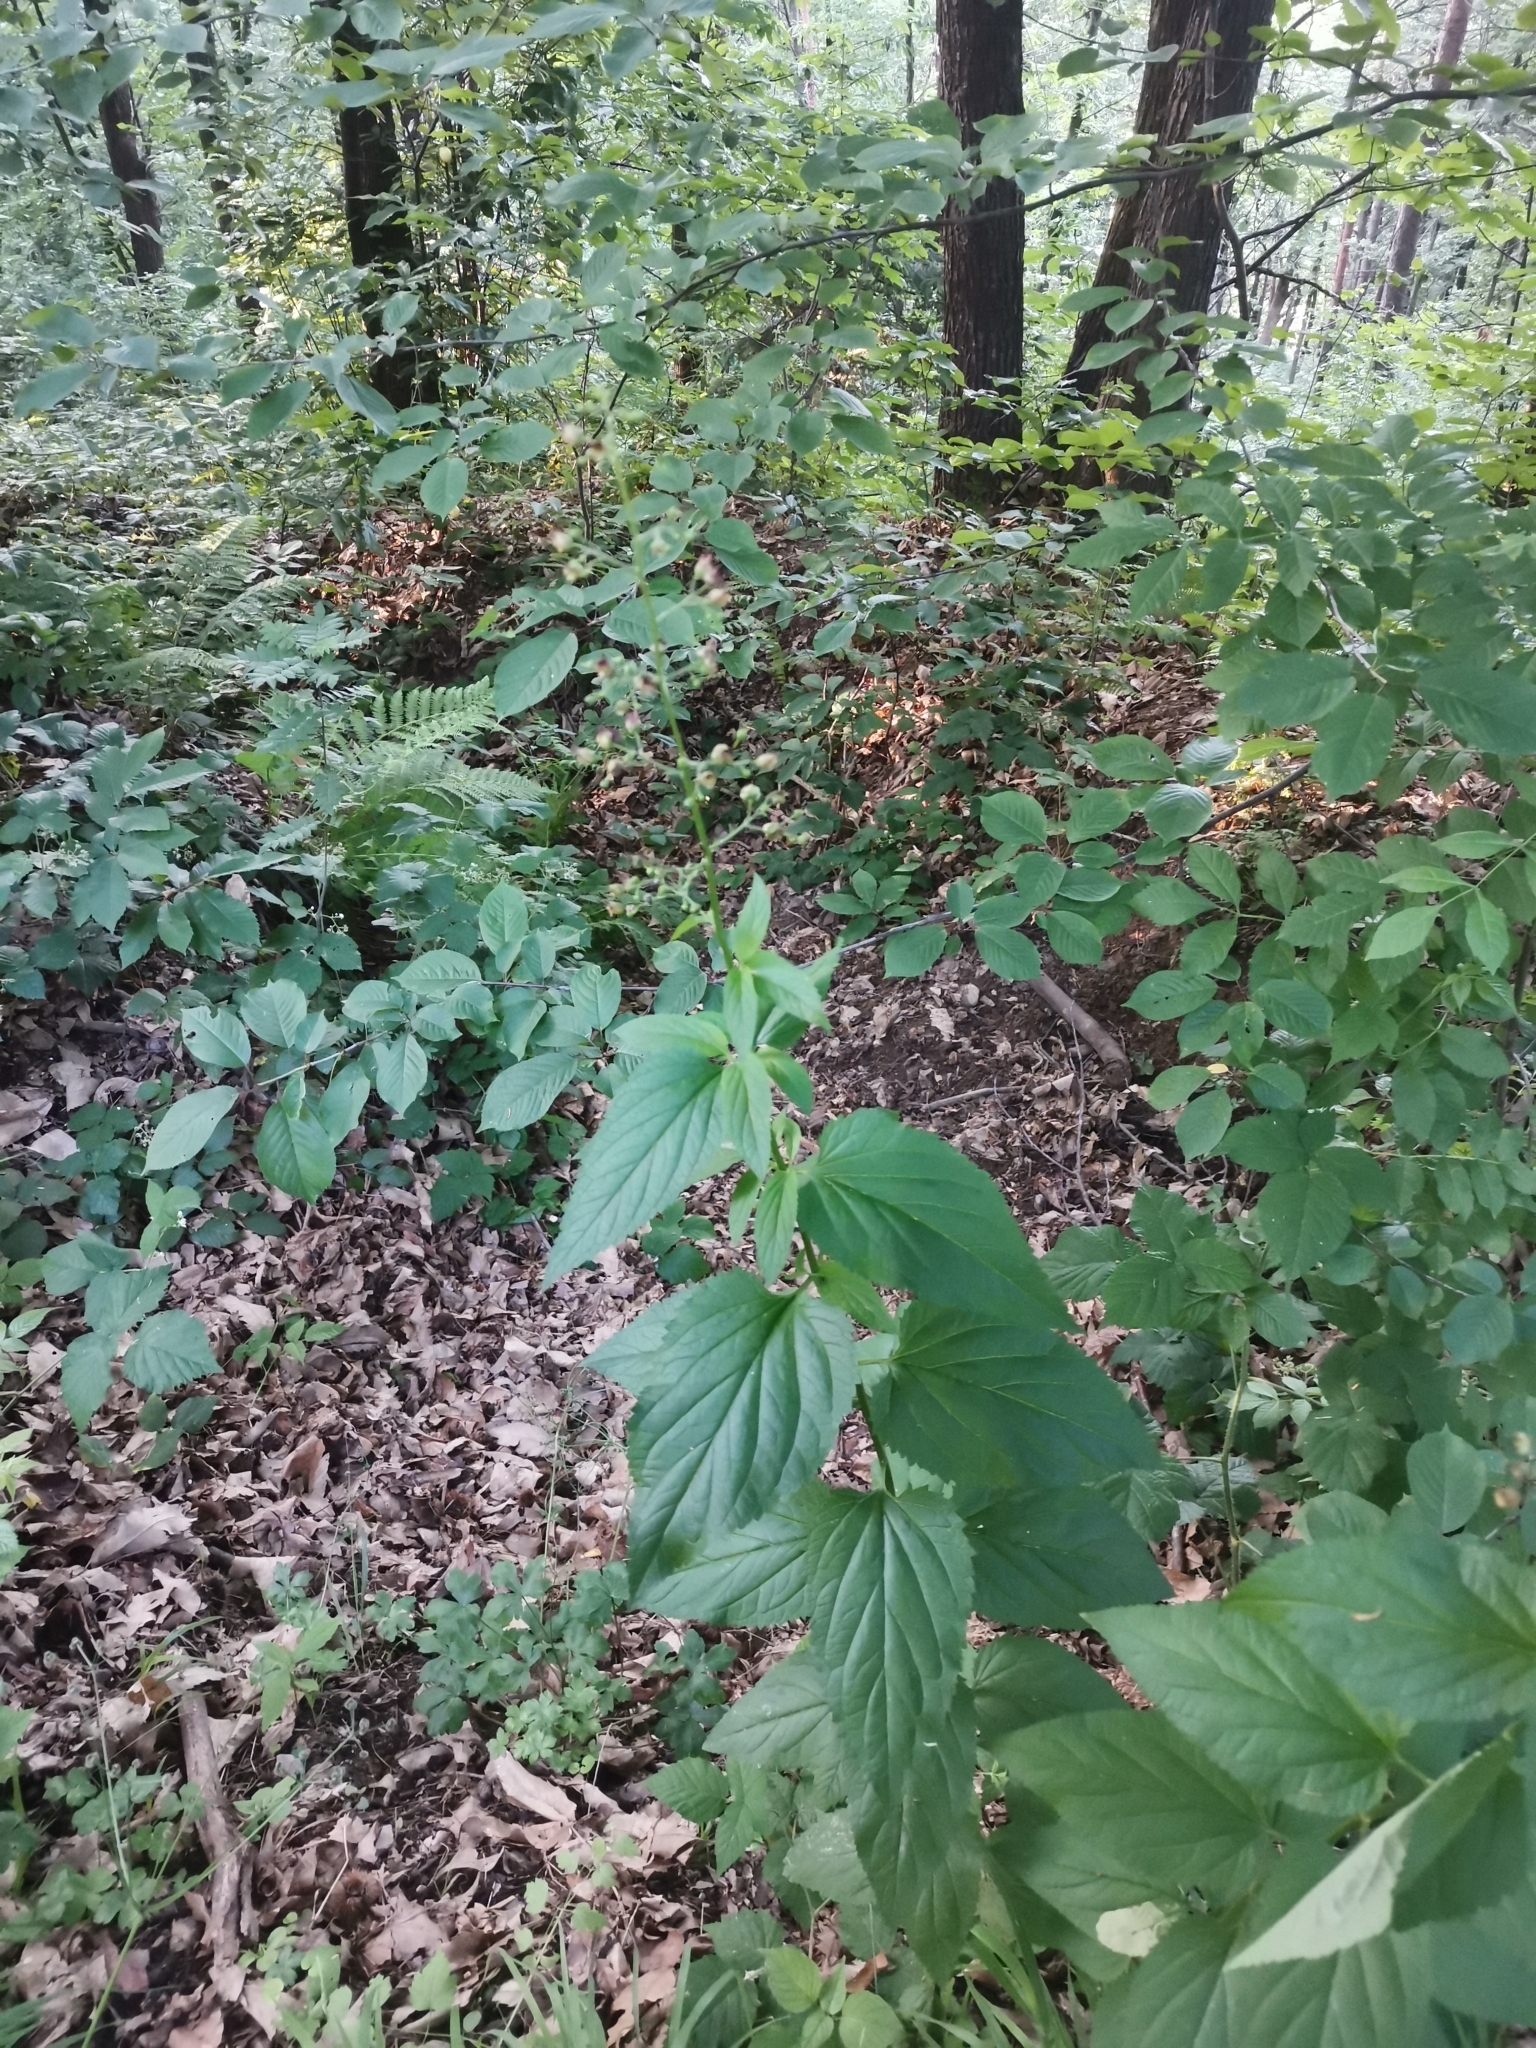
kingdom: Plantae
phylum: Tracheophyta
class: Magnoliopsida
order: Lamiales
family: Scrophulariaceae
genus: Scrophularia
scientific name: Scrophularia nodosa
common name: Common figwort
